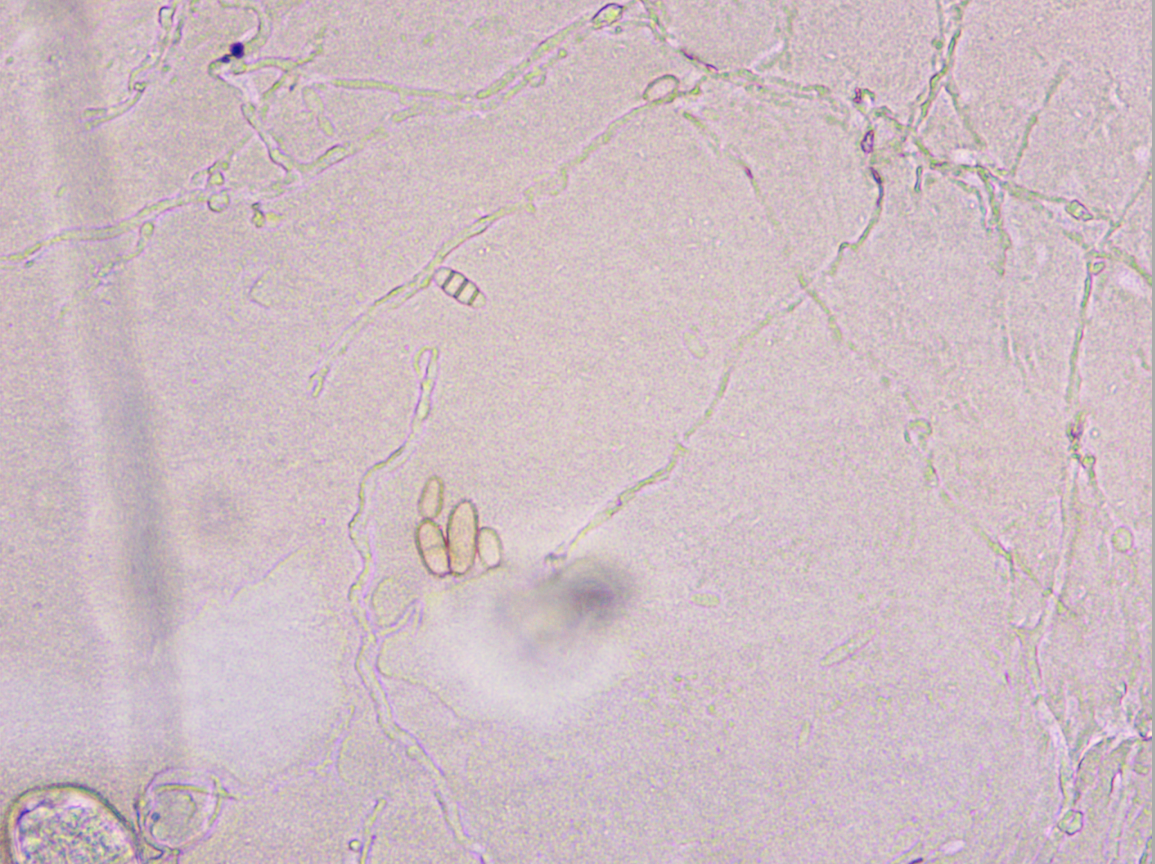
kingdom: Fungi
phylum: Ascomycota
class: Leotiomycetes
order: Helotiales
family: Erysiphaceae
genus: Podosphaera
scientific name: Podosphaera amelanchieris
